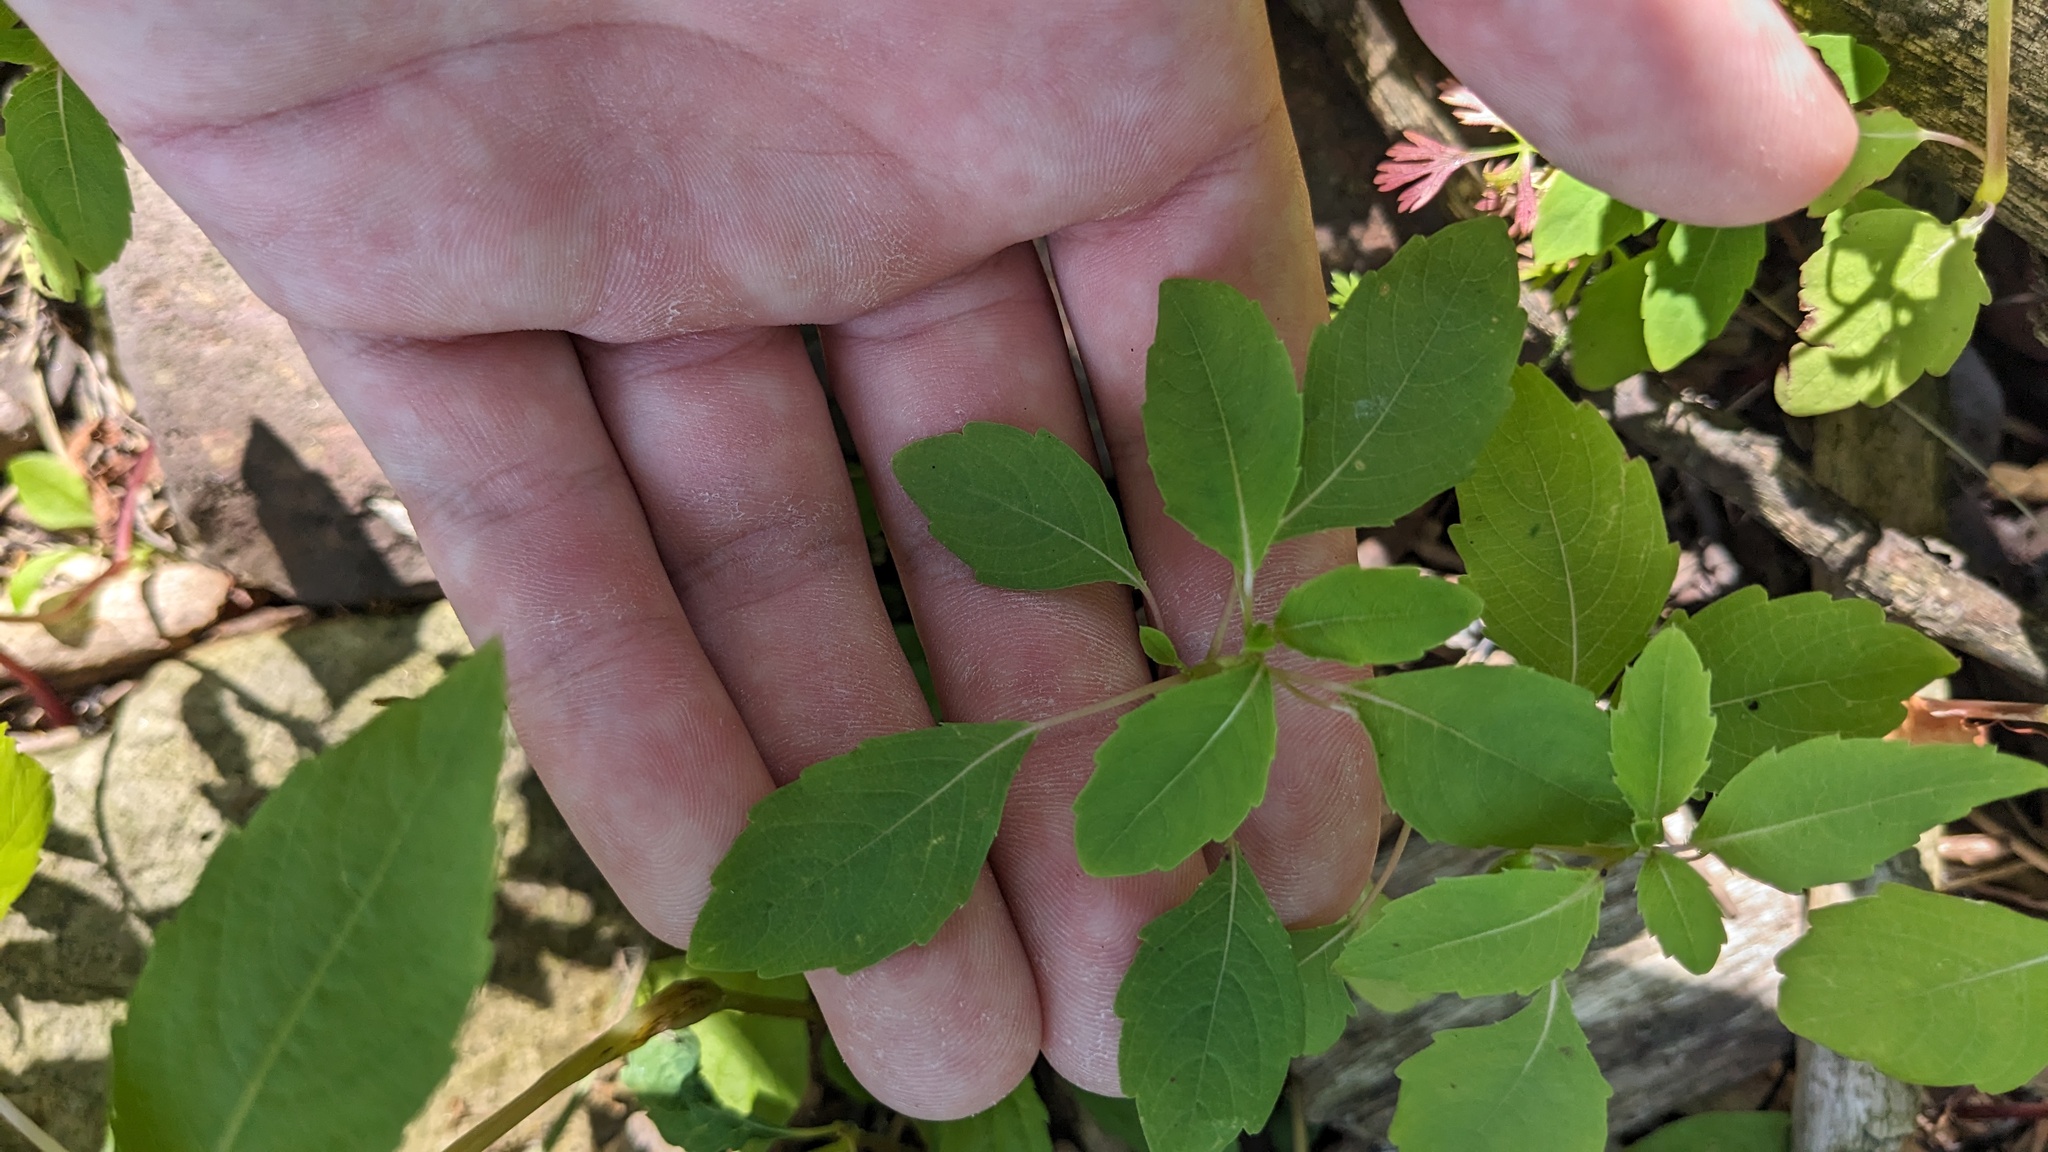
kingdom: Plantae
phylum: Tracheophyta
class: Magnoliopsida
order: Ericales
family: Balsaminaceae
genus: Impatiens
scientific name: Impatiens capensis
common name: Orange balsam
